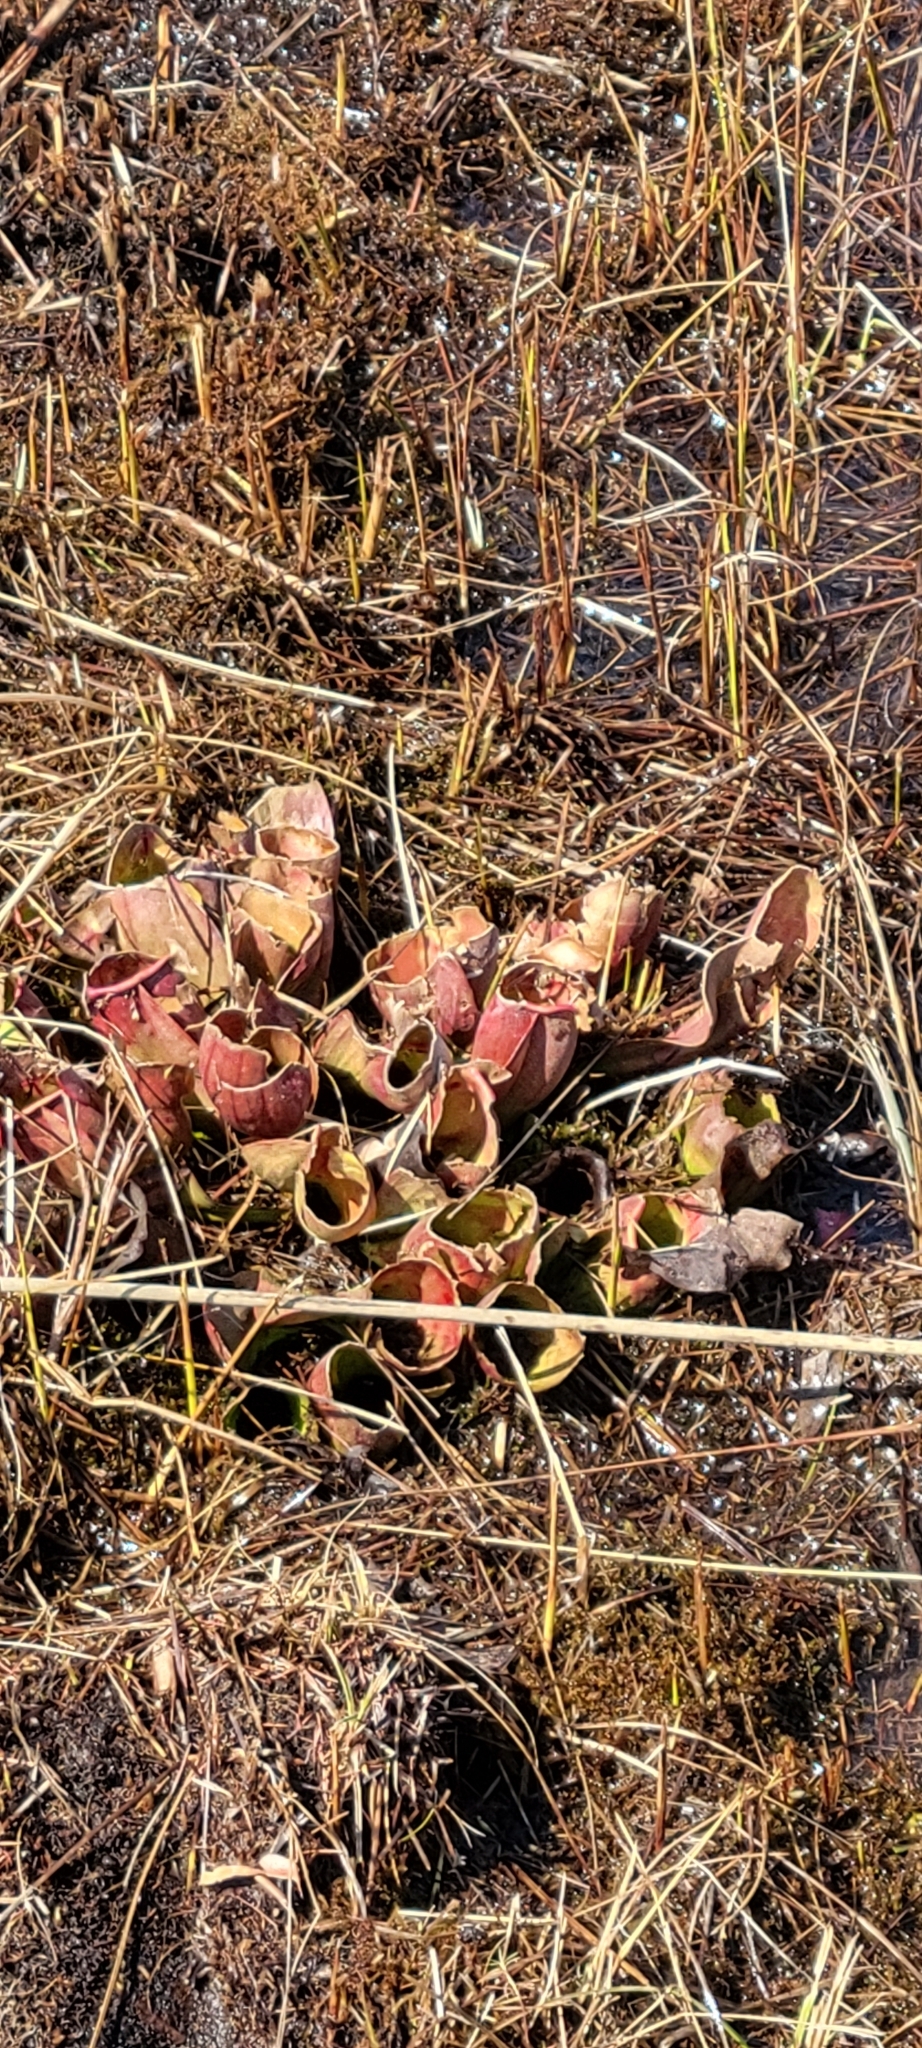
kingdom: Plantae
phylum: Tracheophyta
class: Magnoliopsida
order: Ericales
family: Sarraceniaceae
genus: Sarracenia
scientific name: Sarracenia purpurea
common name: Pitcherplant
